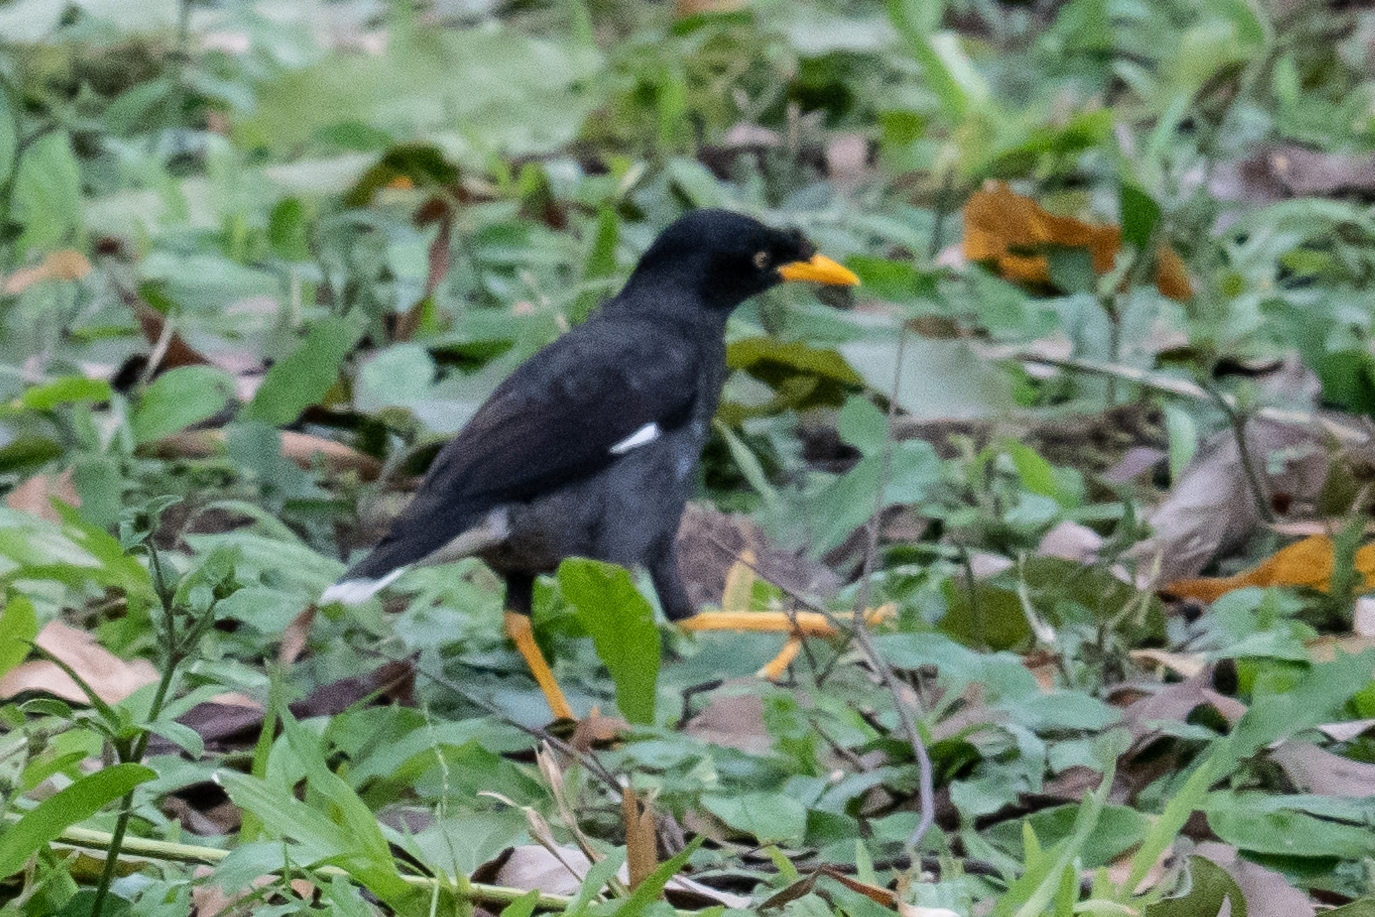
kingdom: Animalia
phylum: Chordata
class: Aves
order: Passeriformes
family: Sturnidae
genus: Acridotheres
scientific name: Acridotheres javanicus
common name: Javan myna
